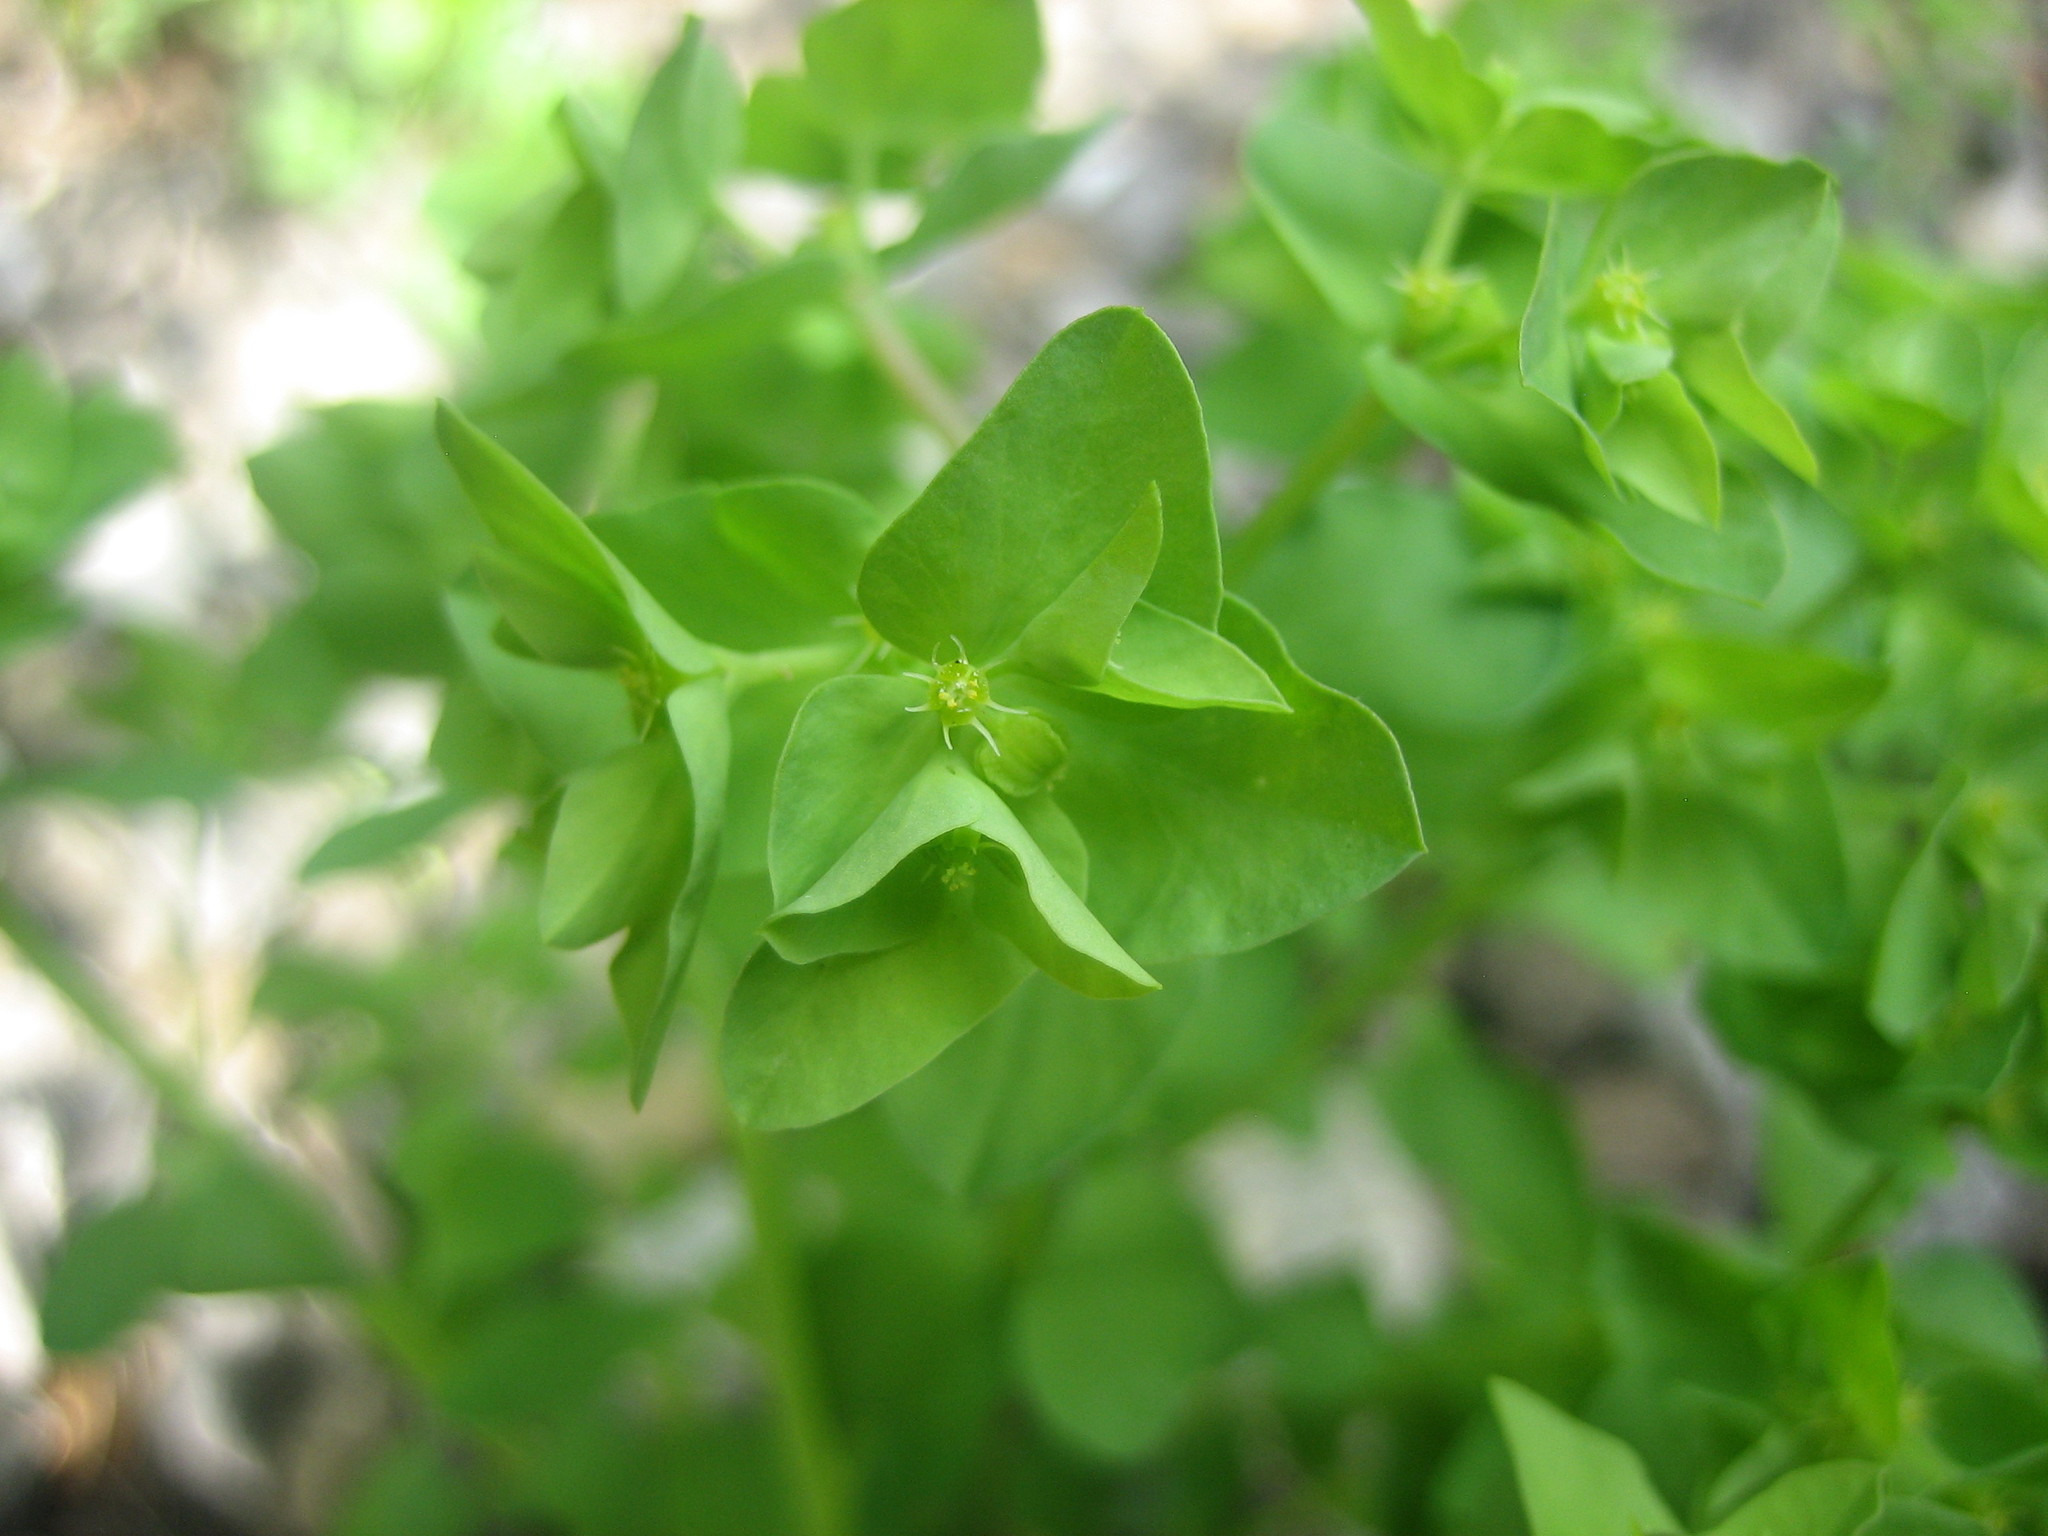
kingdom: Plantae
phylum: Tracheophyta
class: Magnoliopsida
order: Malpighiales
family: Euphorbiaceae
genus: Euphorbia
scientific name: Euphorbia peplus
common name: Petty spurge
